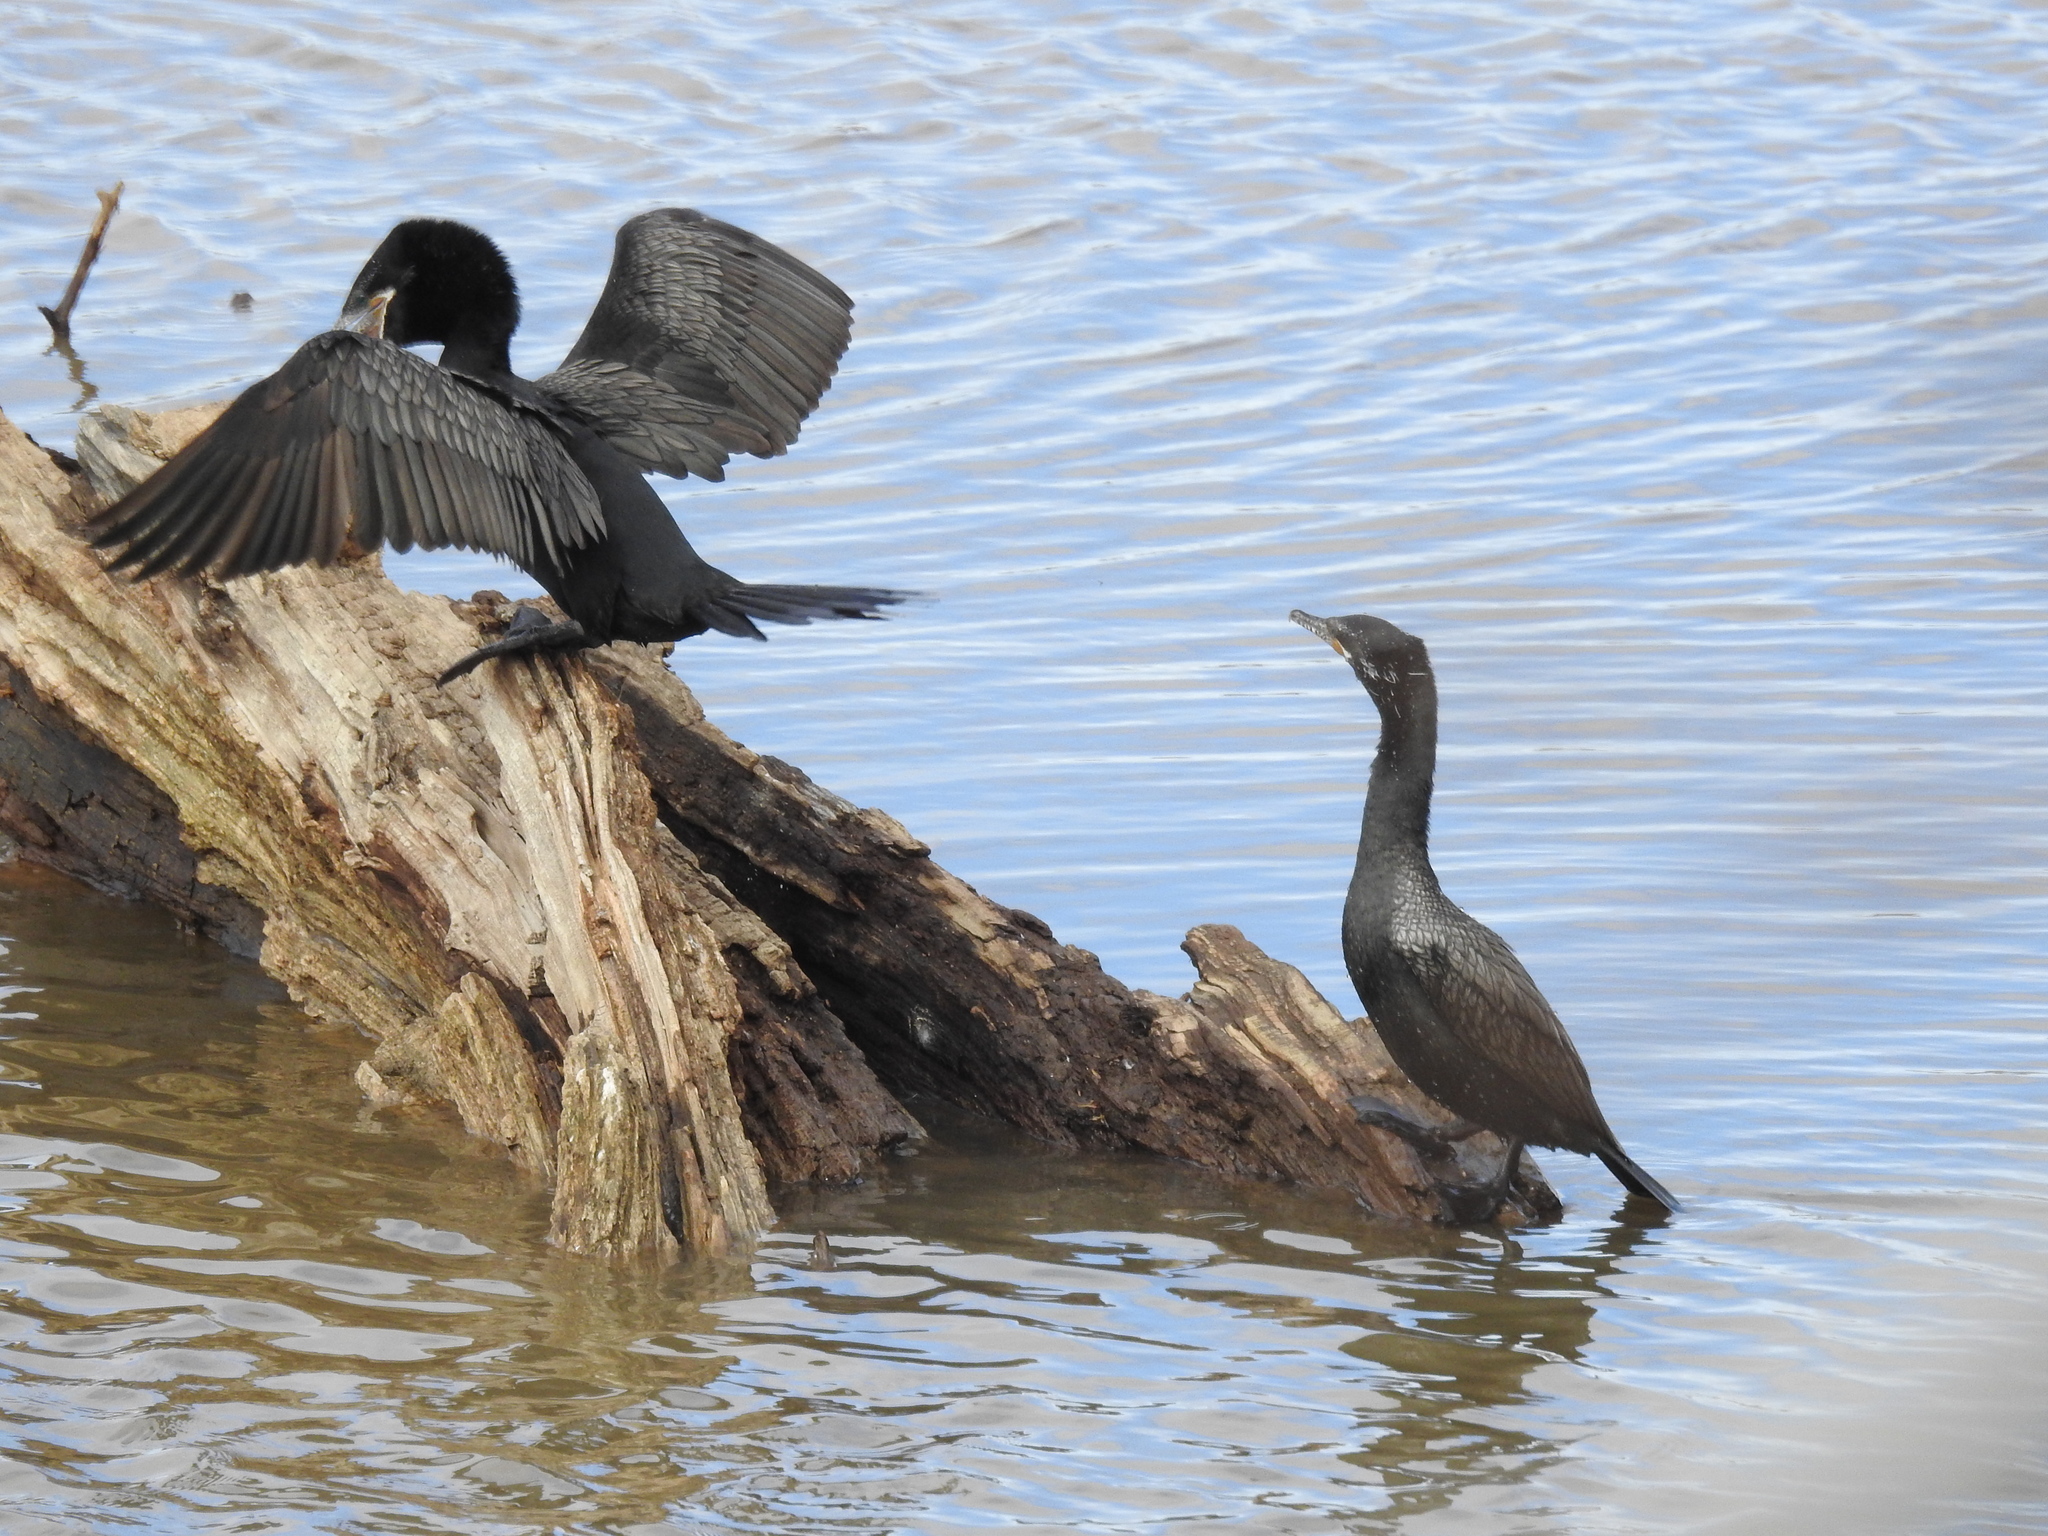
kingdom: Animalia
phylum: Chordata
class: Aves
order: Suliformes
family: Phalacrocoracidae
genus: Phalacrocorax
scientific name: Phalacrocorax brasilianus
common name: Neotropic cormorant
